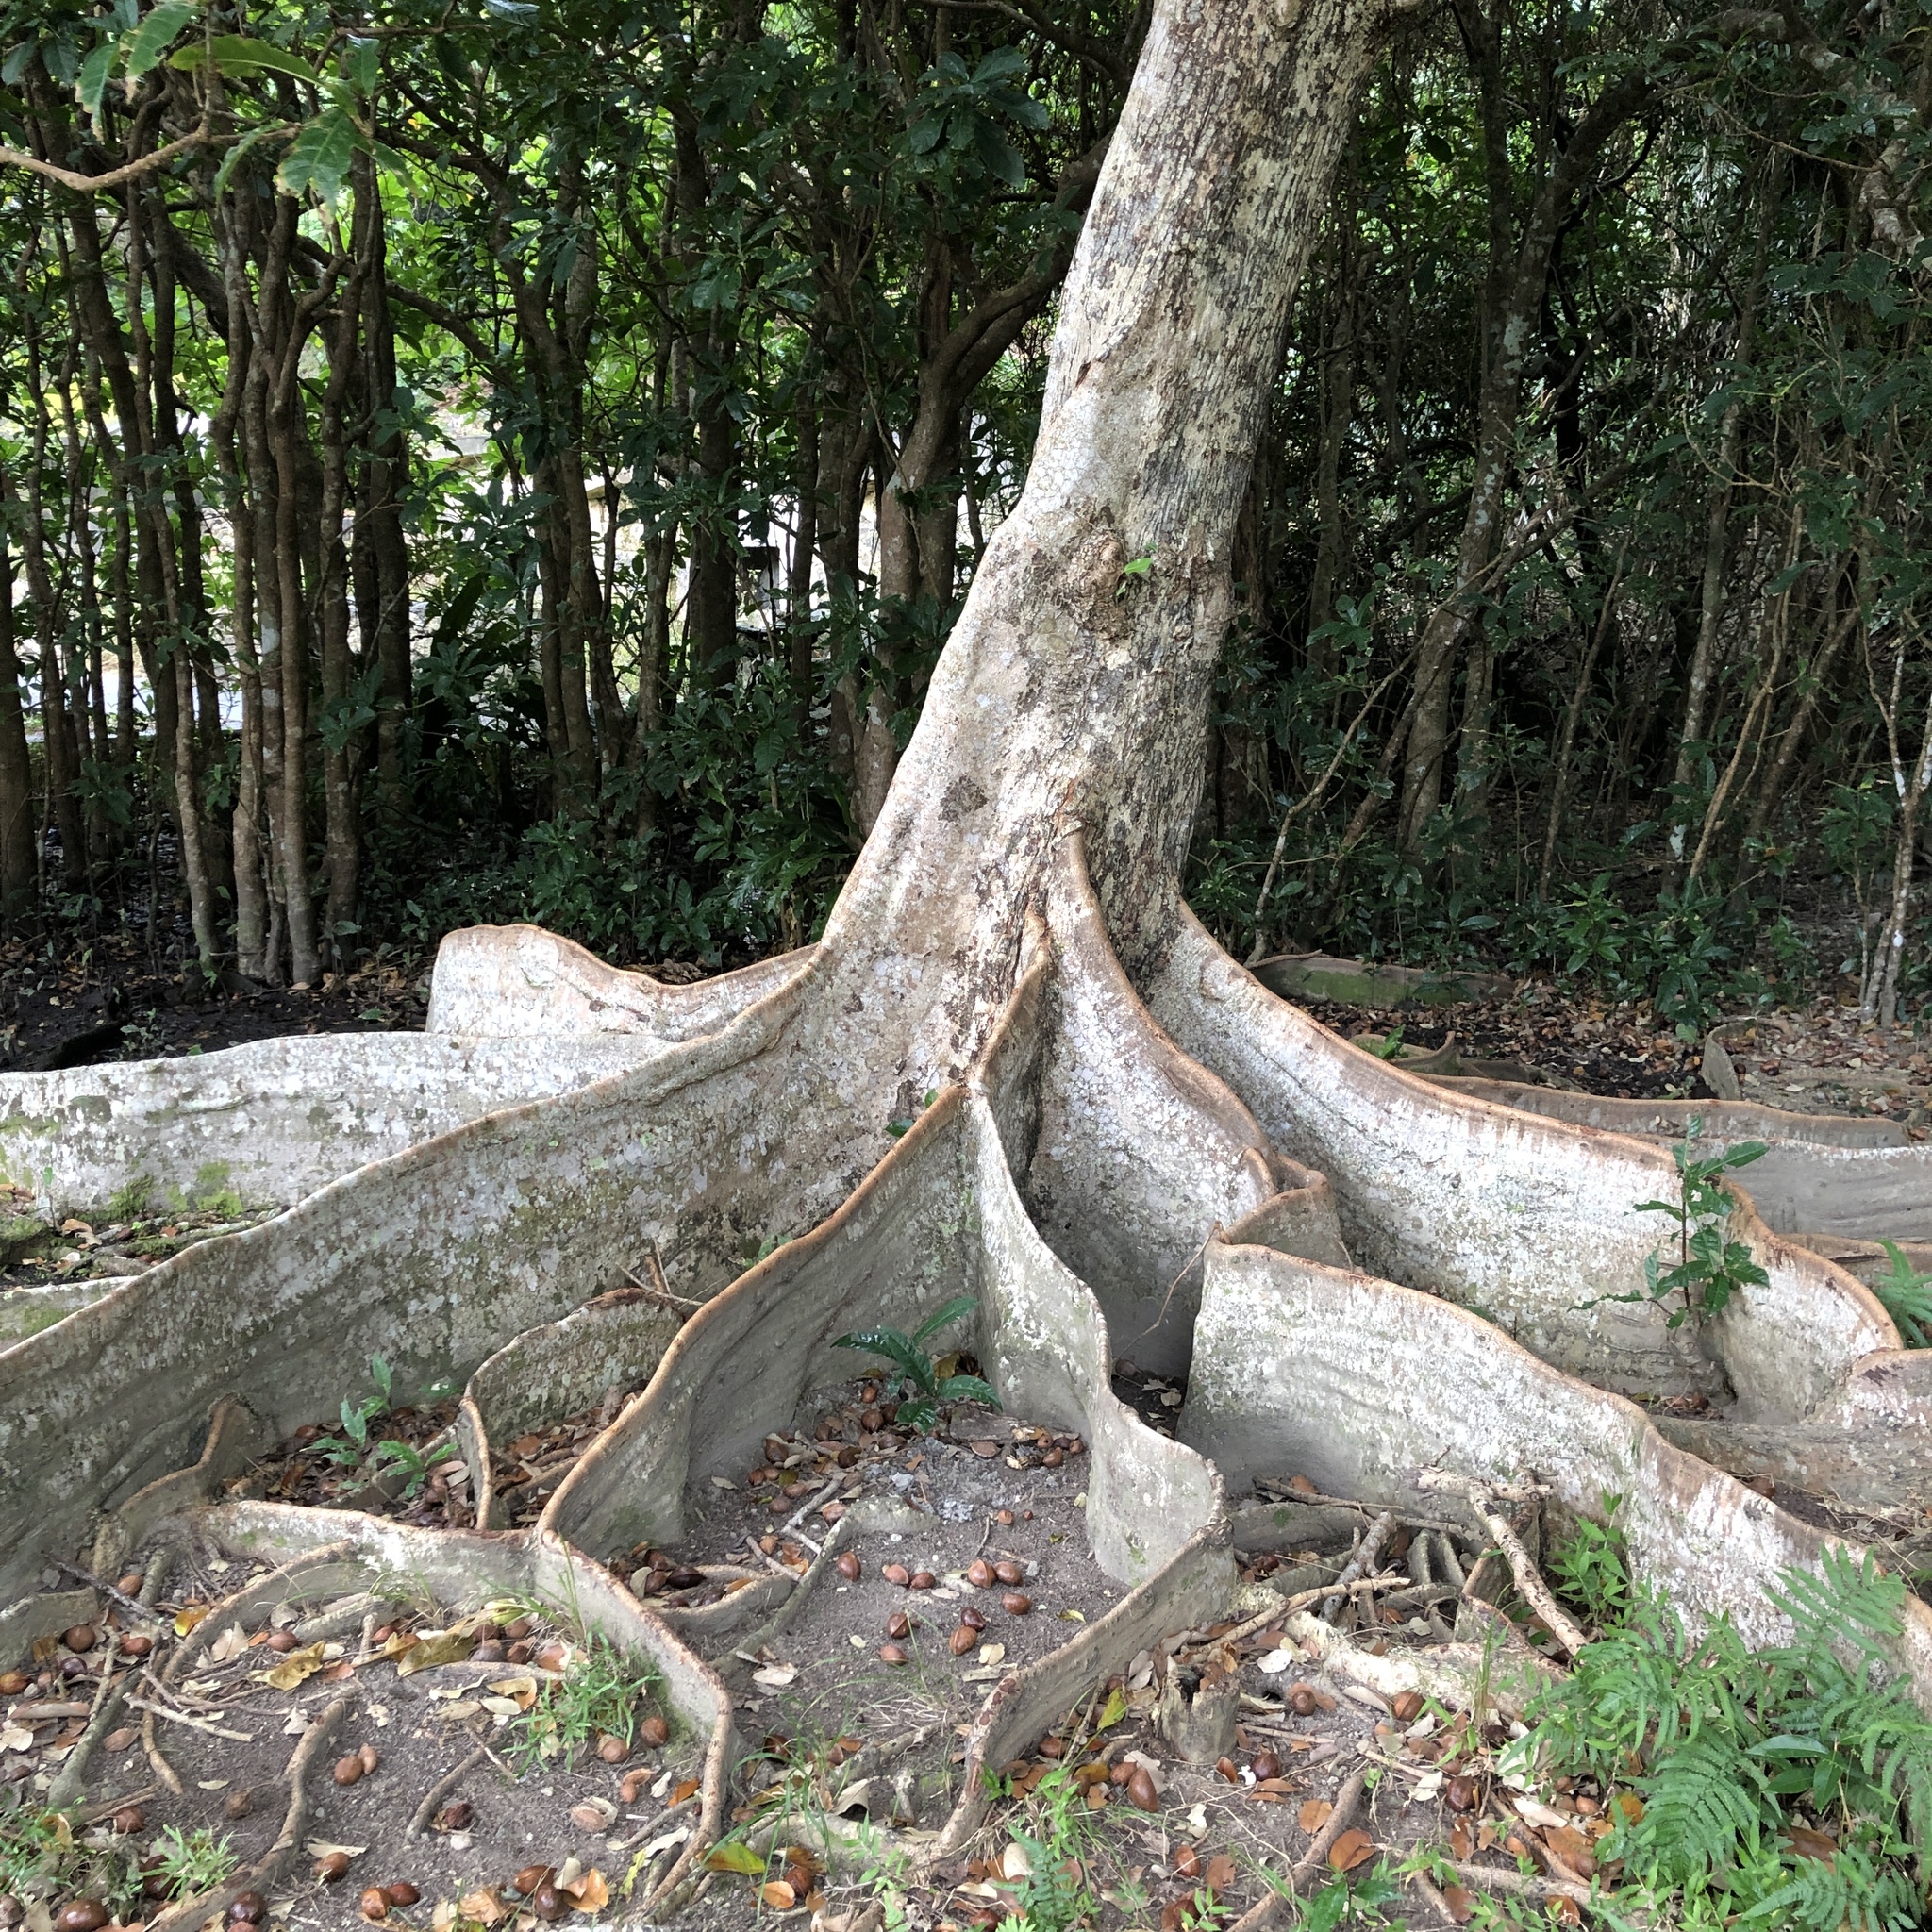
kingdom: Plantae
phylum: Tracheophyta
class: Magnoliopsida
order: Malvales
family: Malvaceae
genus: Heritiera
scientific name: Heritiera littoralis
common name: Looking-glass mangrove
